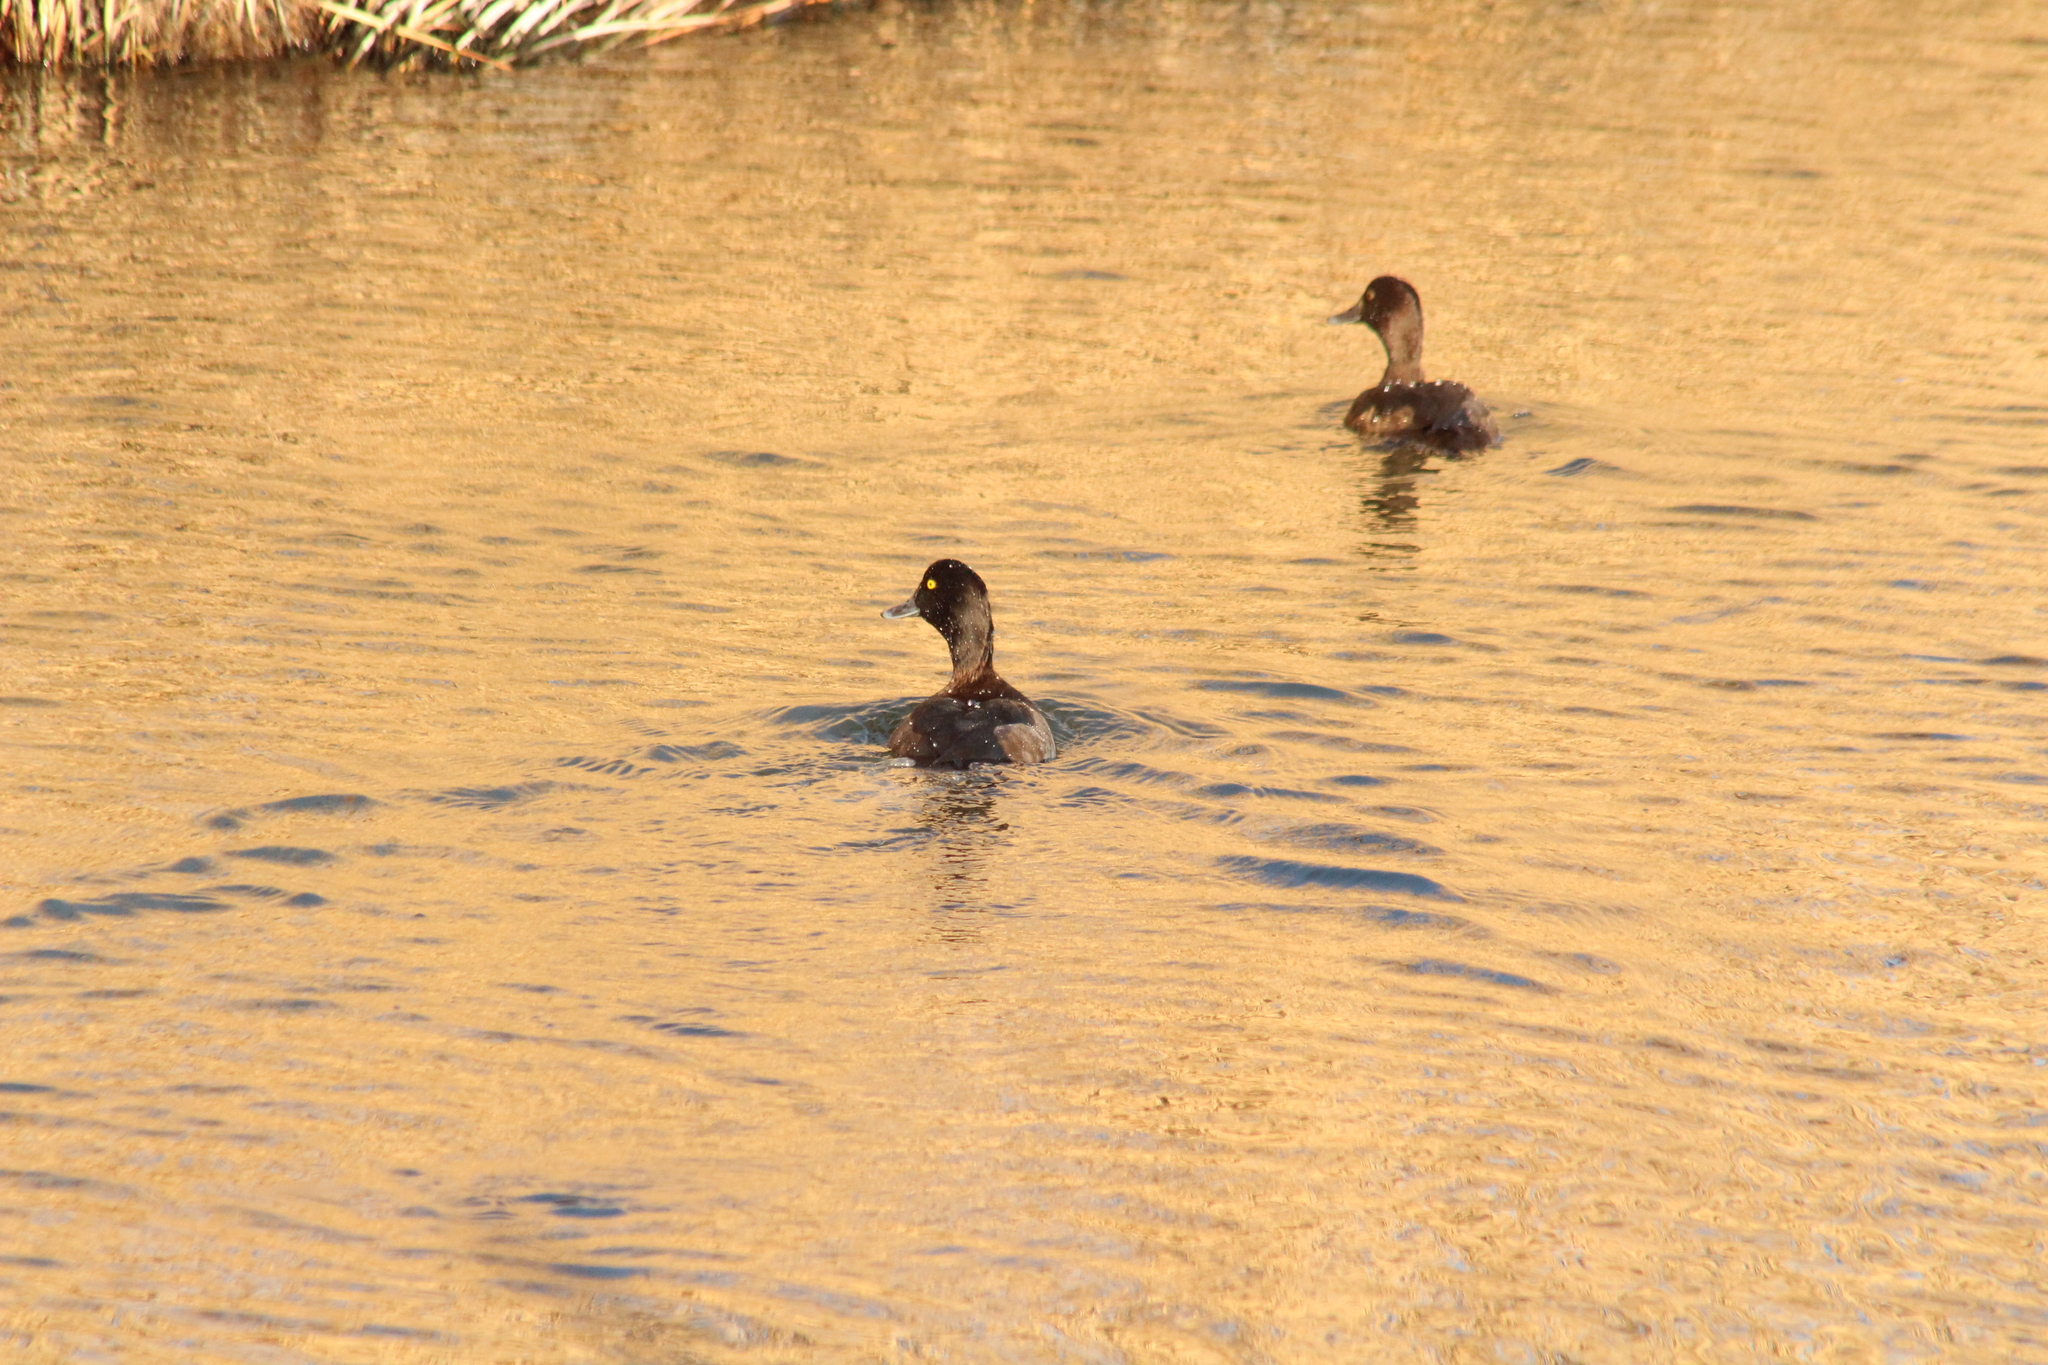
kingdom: Animalia
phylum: Chordata
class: Aves
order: Anseriformes
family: Anatidae
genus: Aythya
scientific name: Aythya fuligula
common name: Tufted duck
